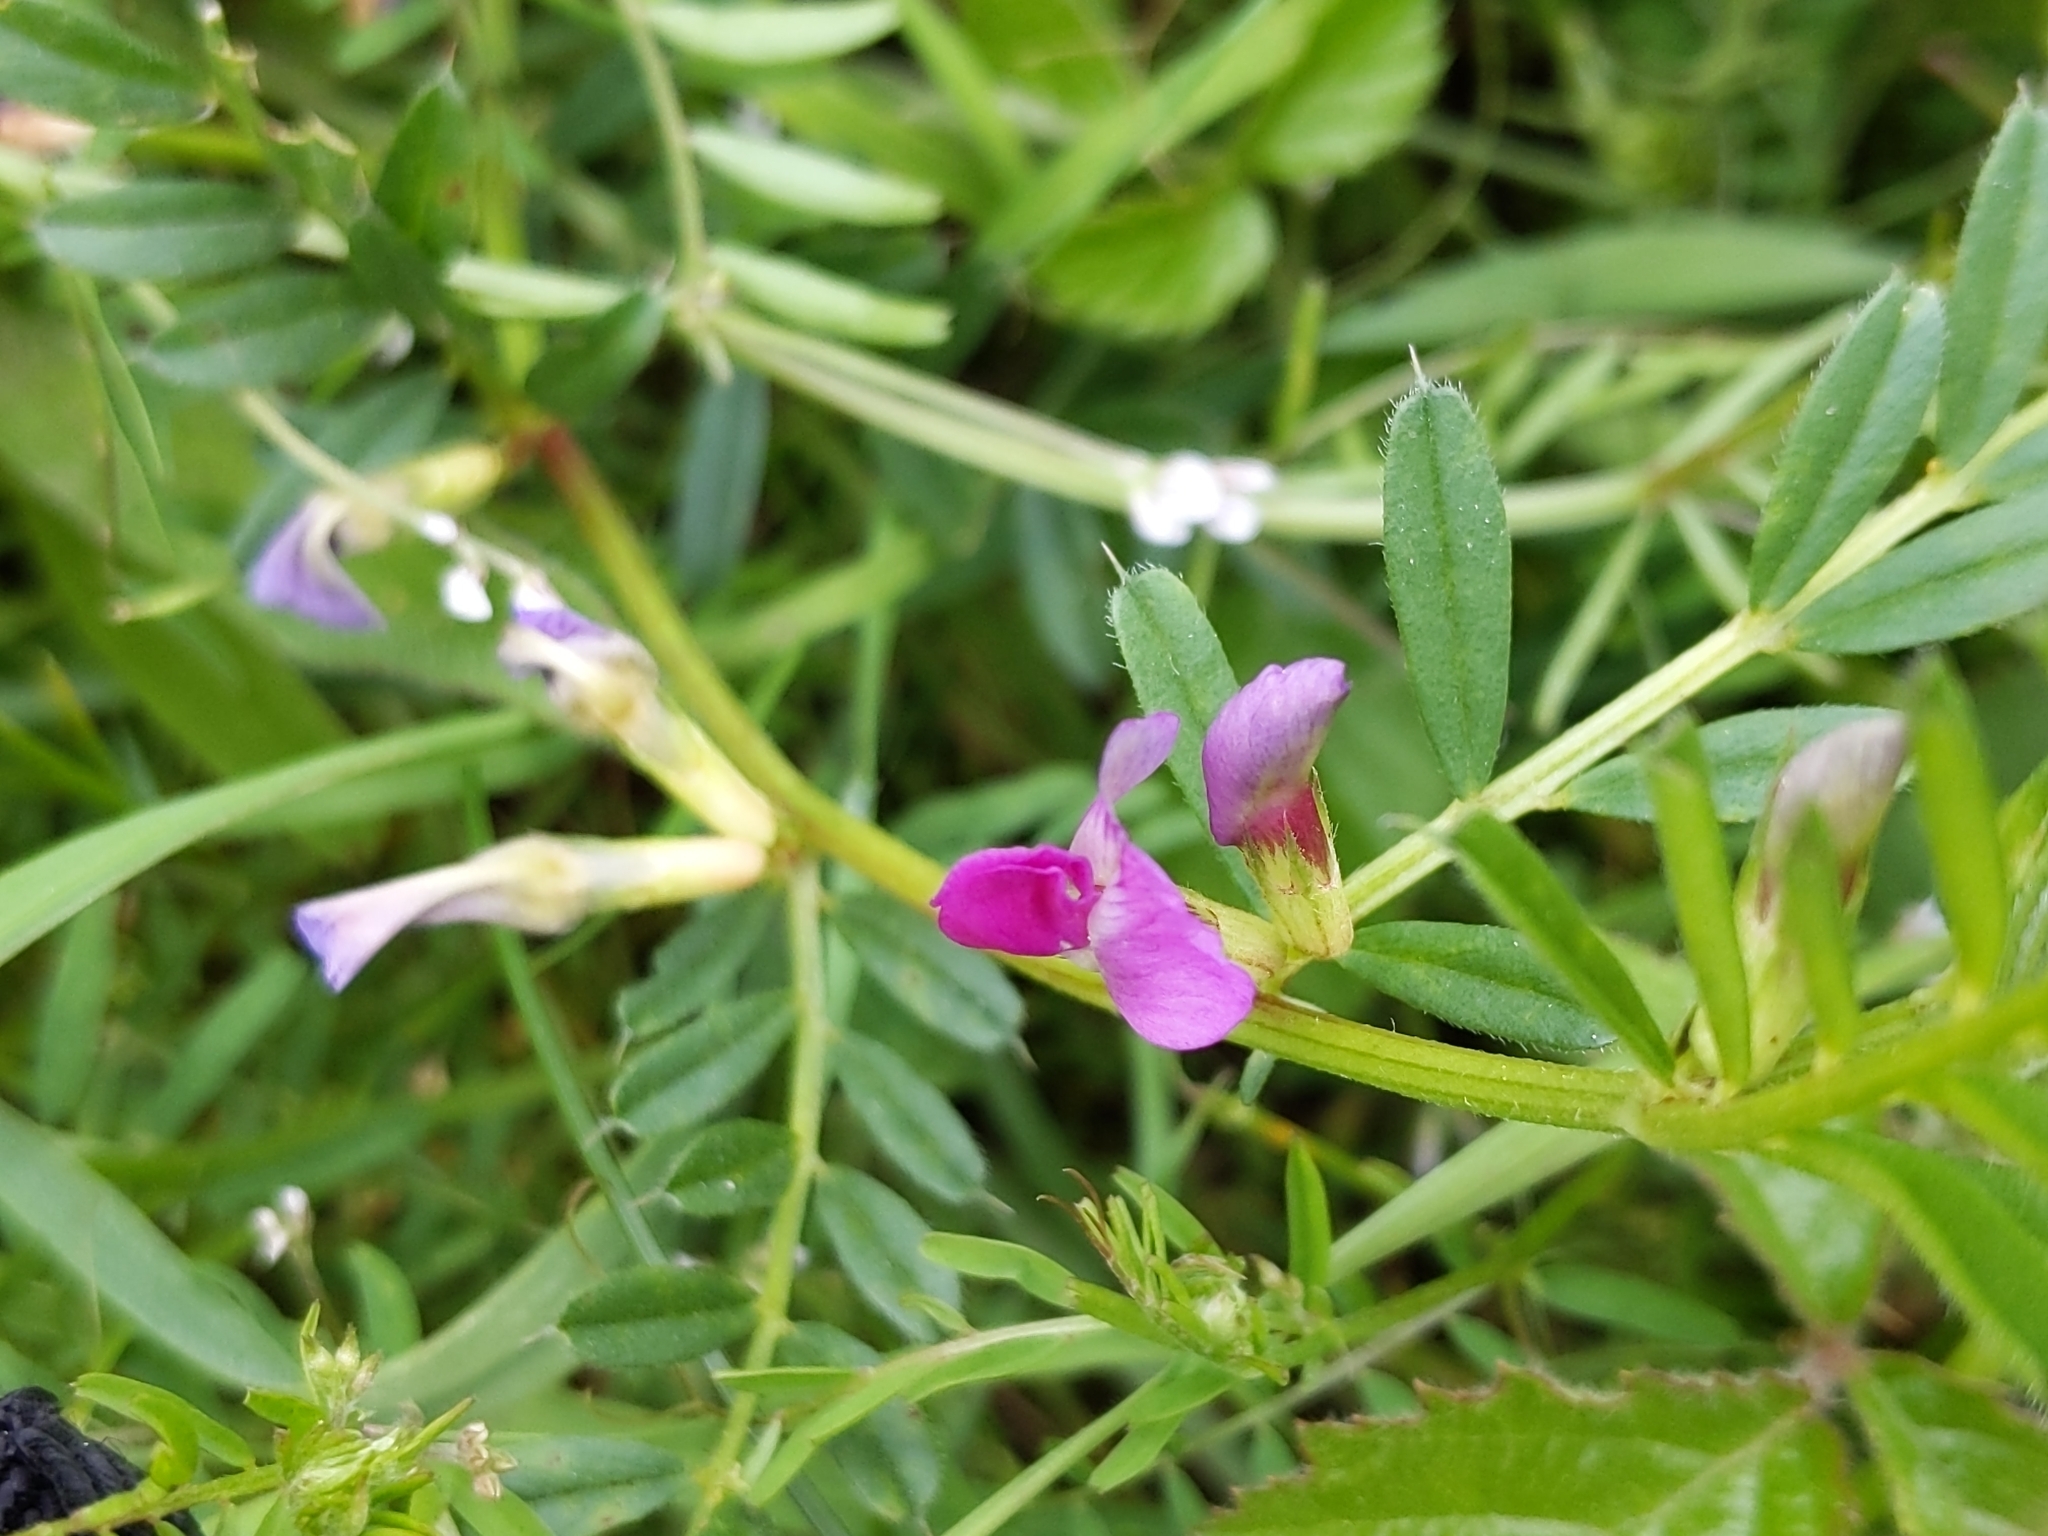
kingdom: Plantae
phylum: Tracheophyta
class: Magnoliopsida
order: Fabales
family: Fabaceae
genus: Vicia
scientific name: Vicia sativa
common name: Garden vetch
